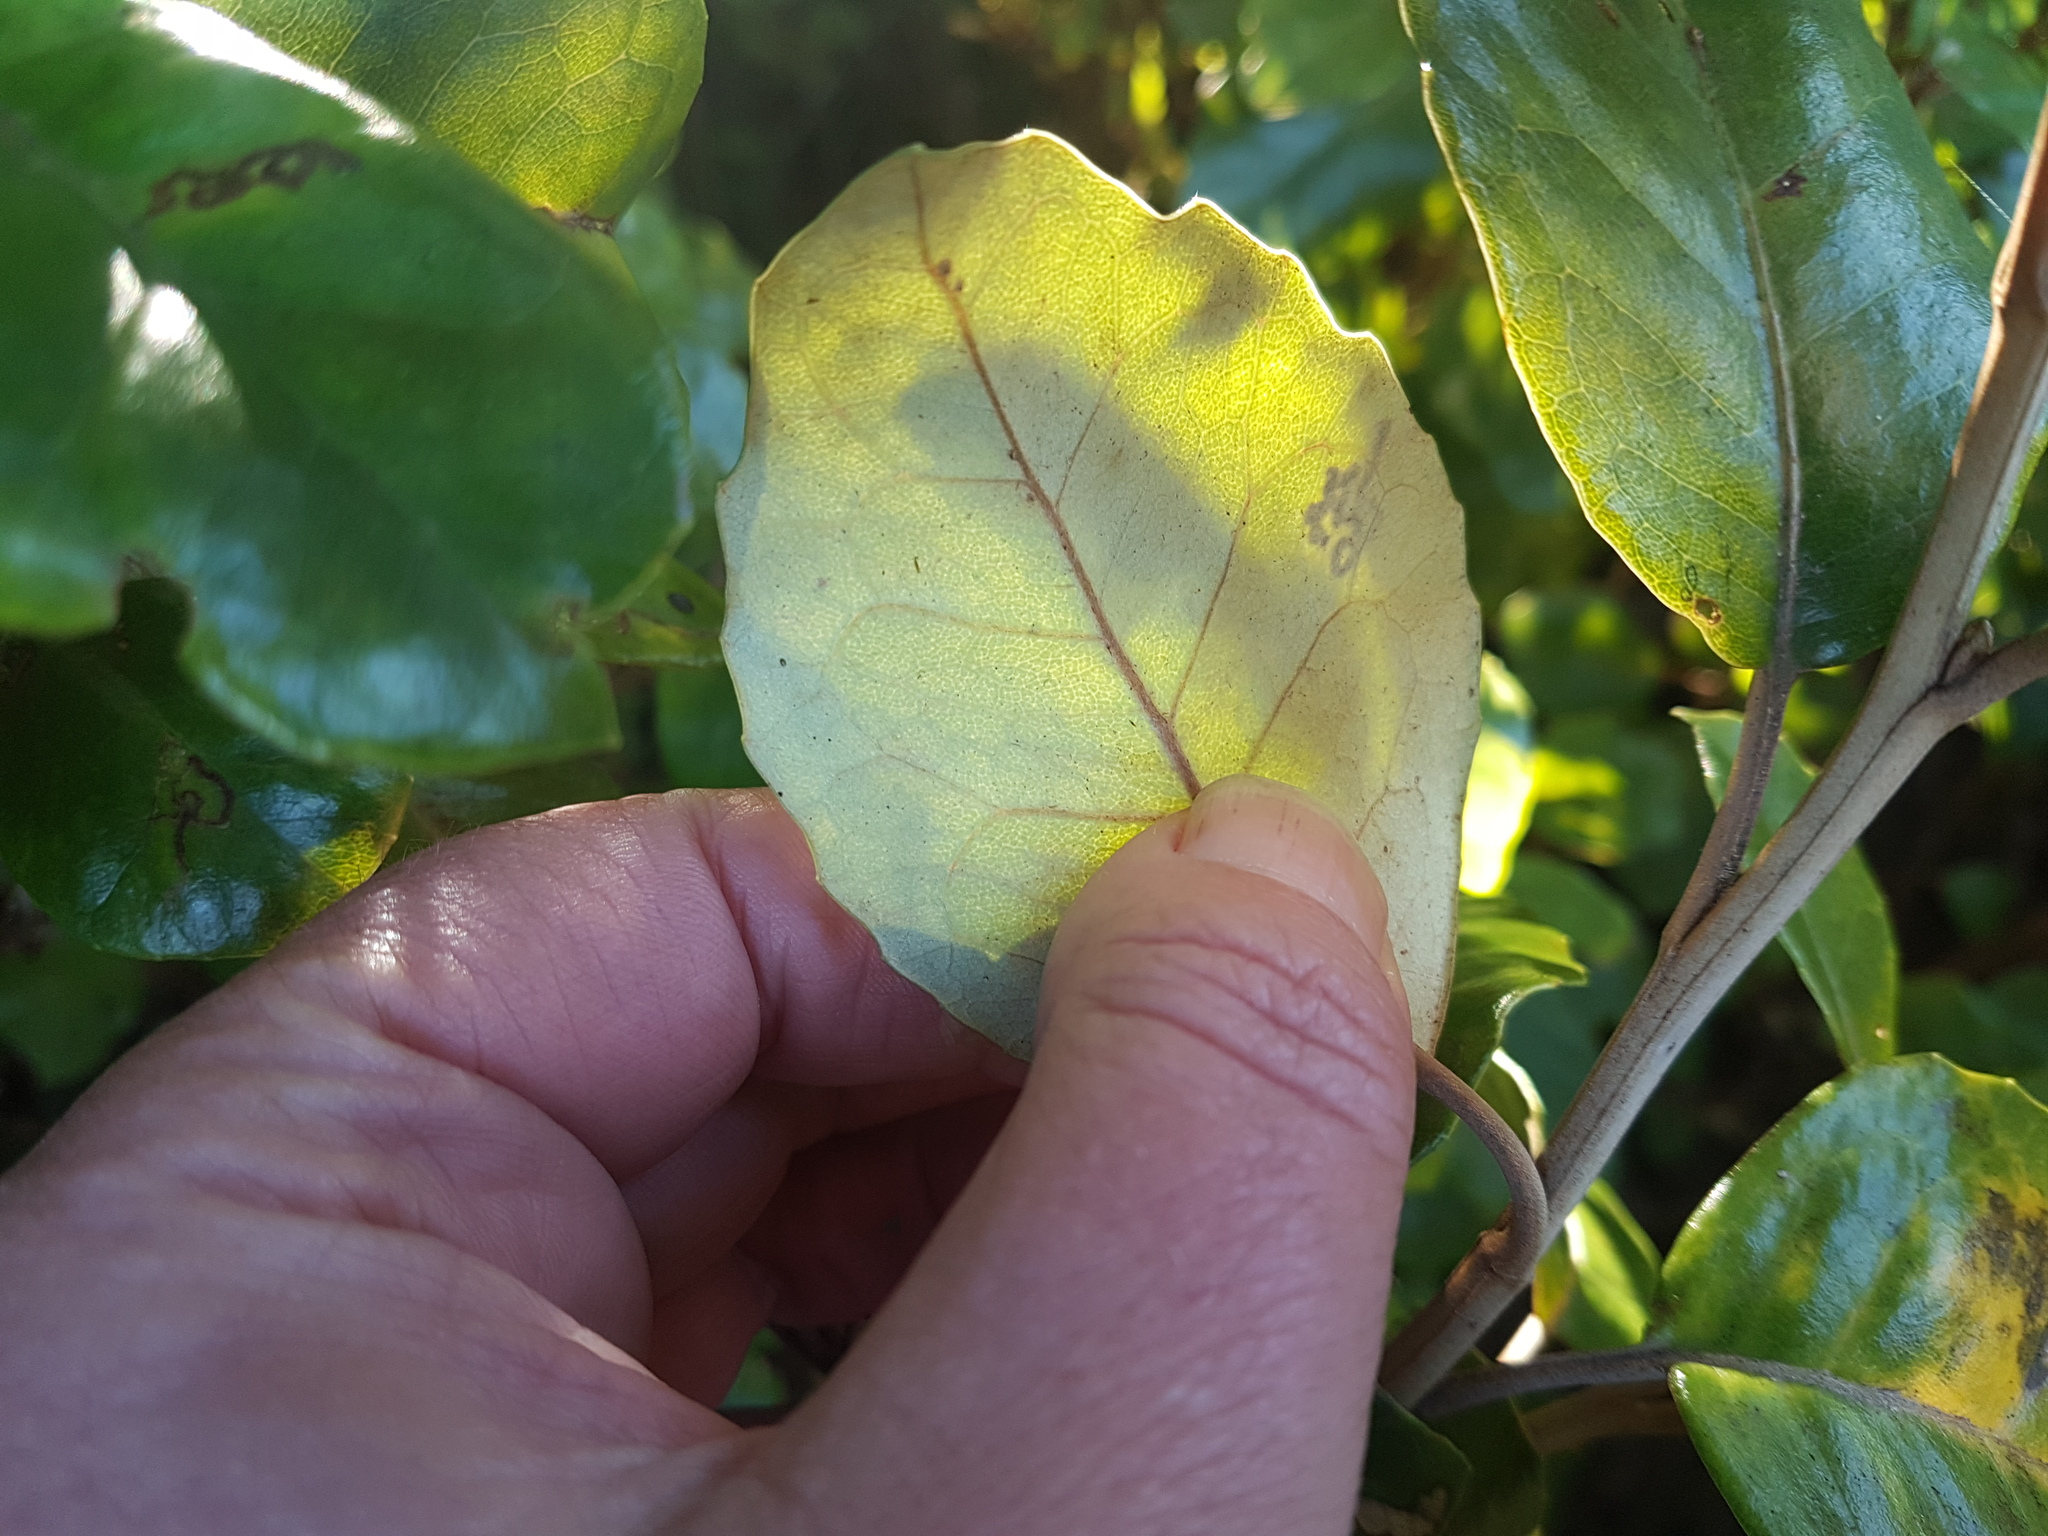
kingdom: Plantae
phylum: Tracheophyta
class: Magnoliopsida
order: Asterales
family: Asteraceae
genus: Olearia
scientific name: Olearia arborescens
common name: Glossy tree daisy
